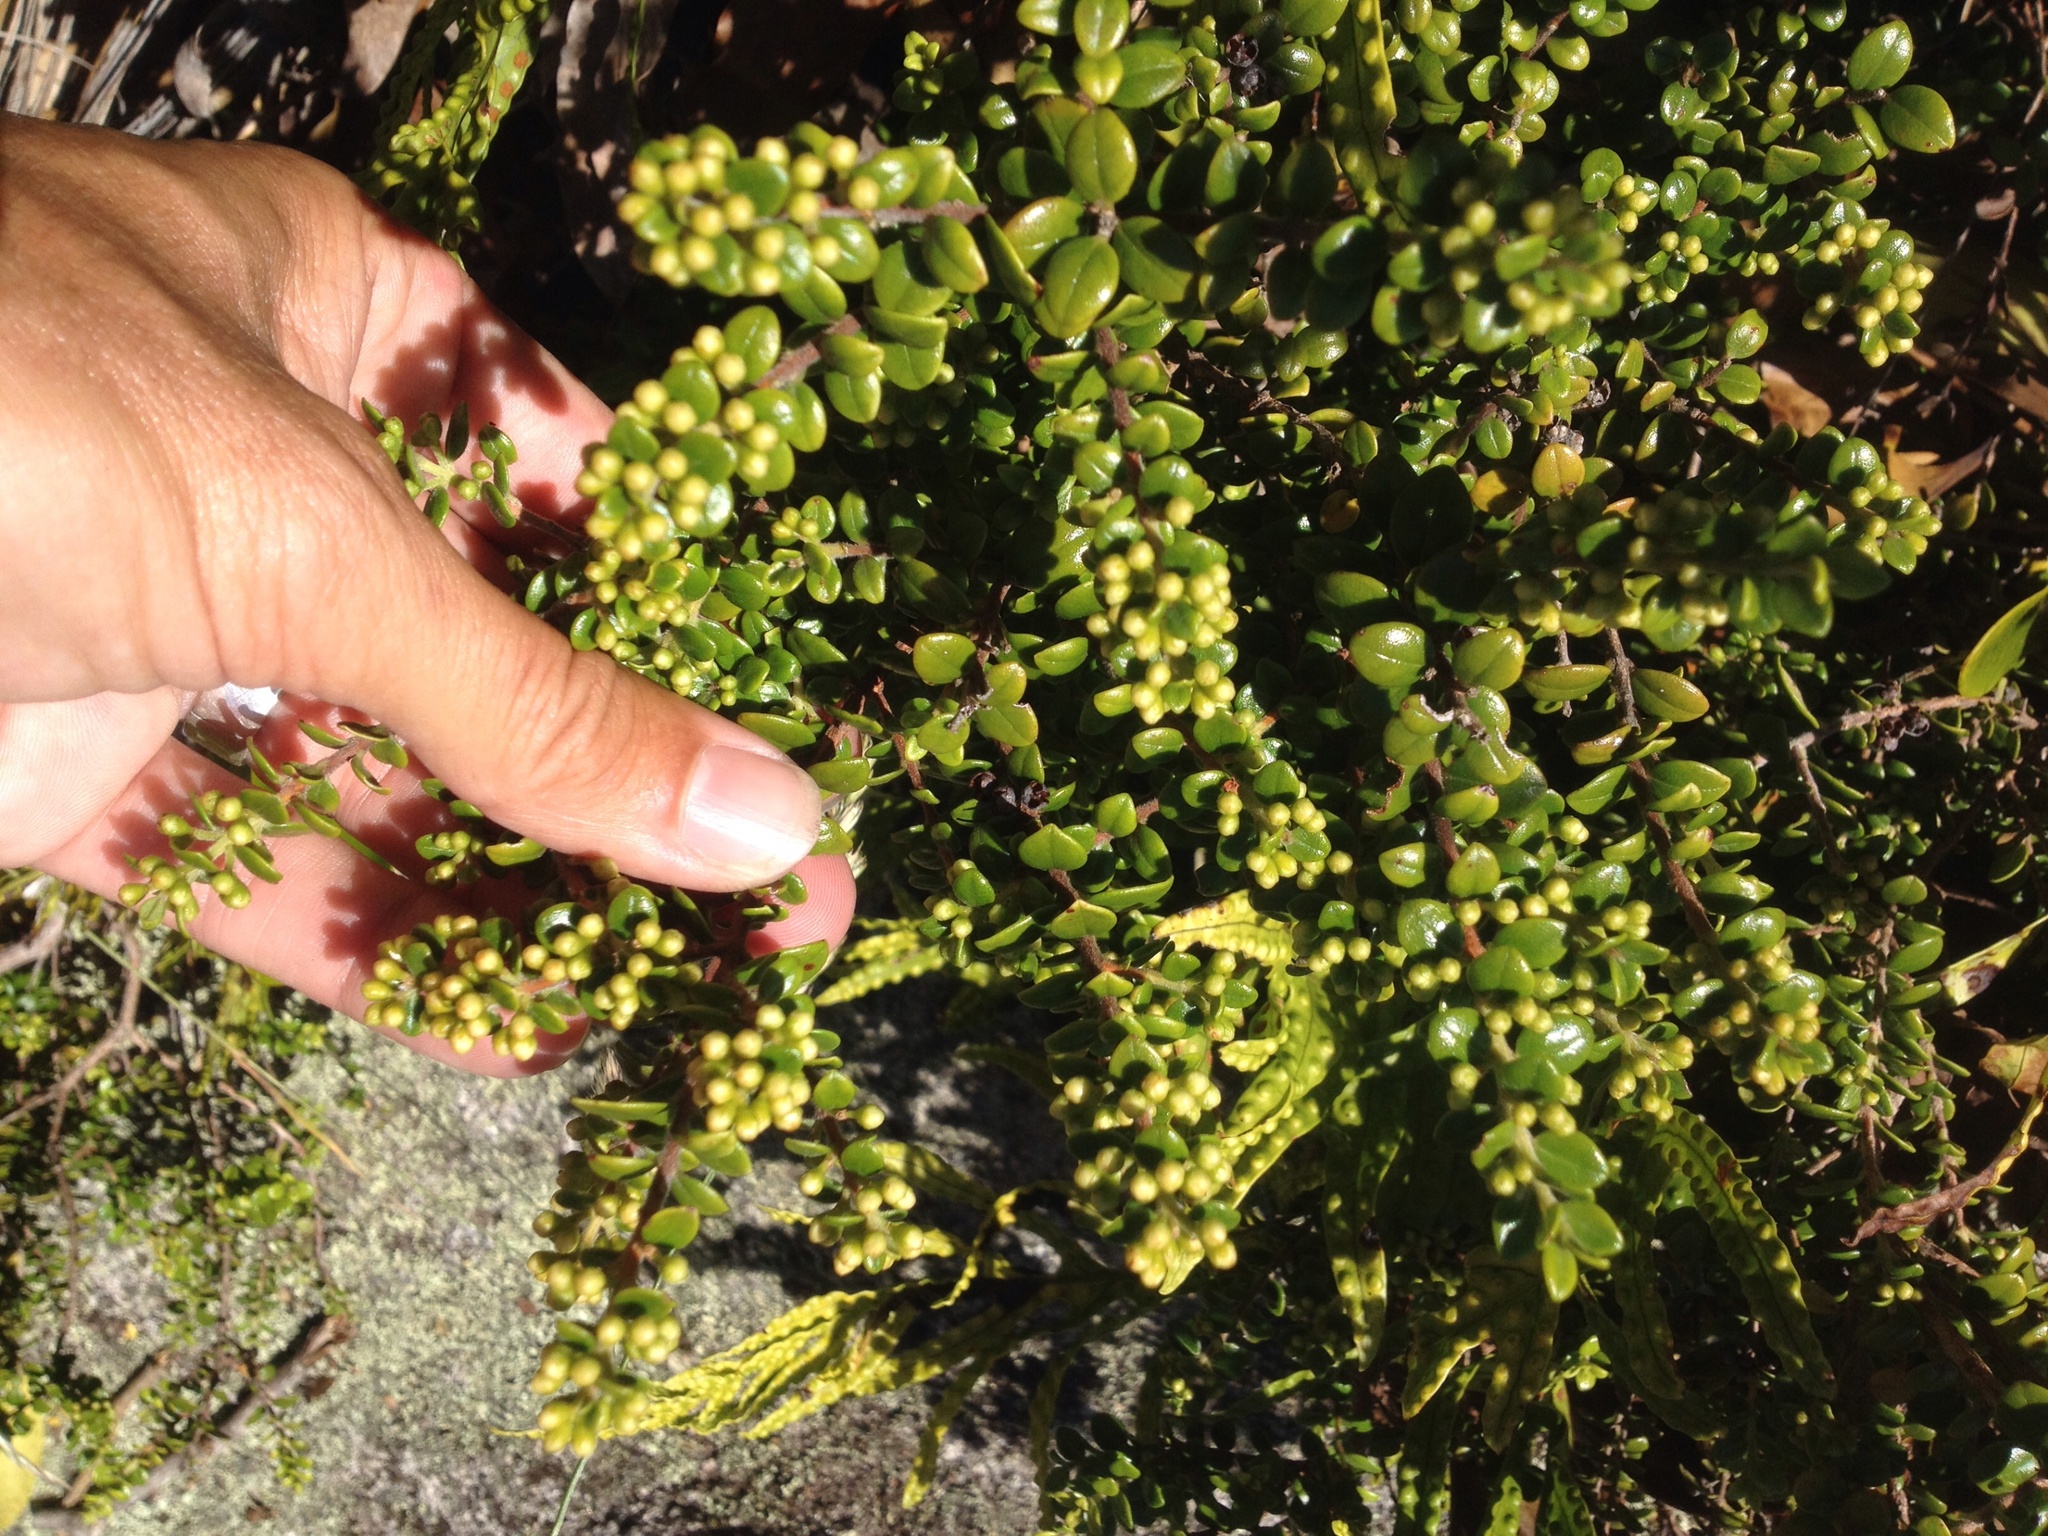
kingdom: Plantae
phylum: Tracheophyta
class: Magnoliopsida
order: Myrtales
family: Myrtaceae
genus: Metrosideros
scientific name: Metrosideros perforata
